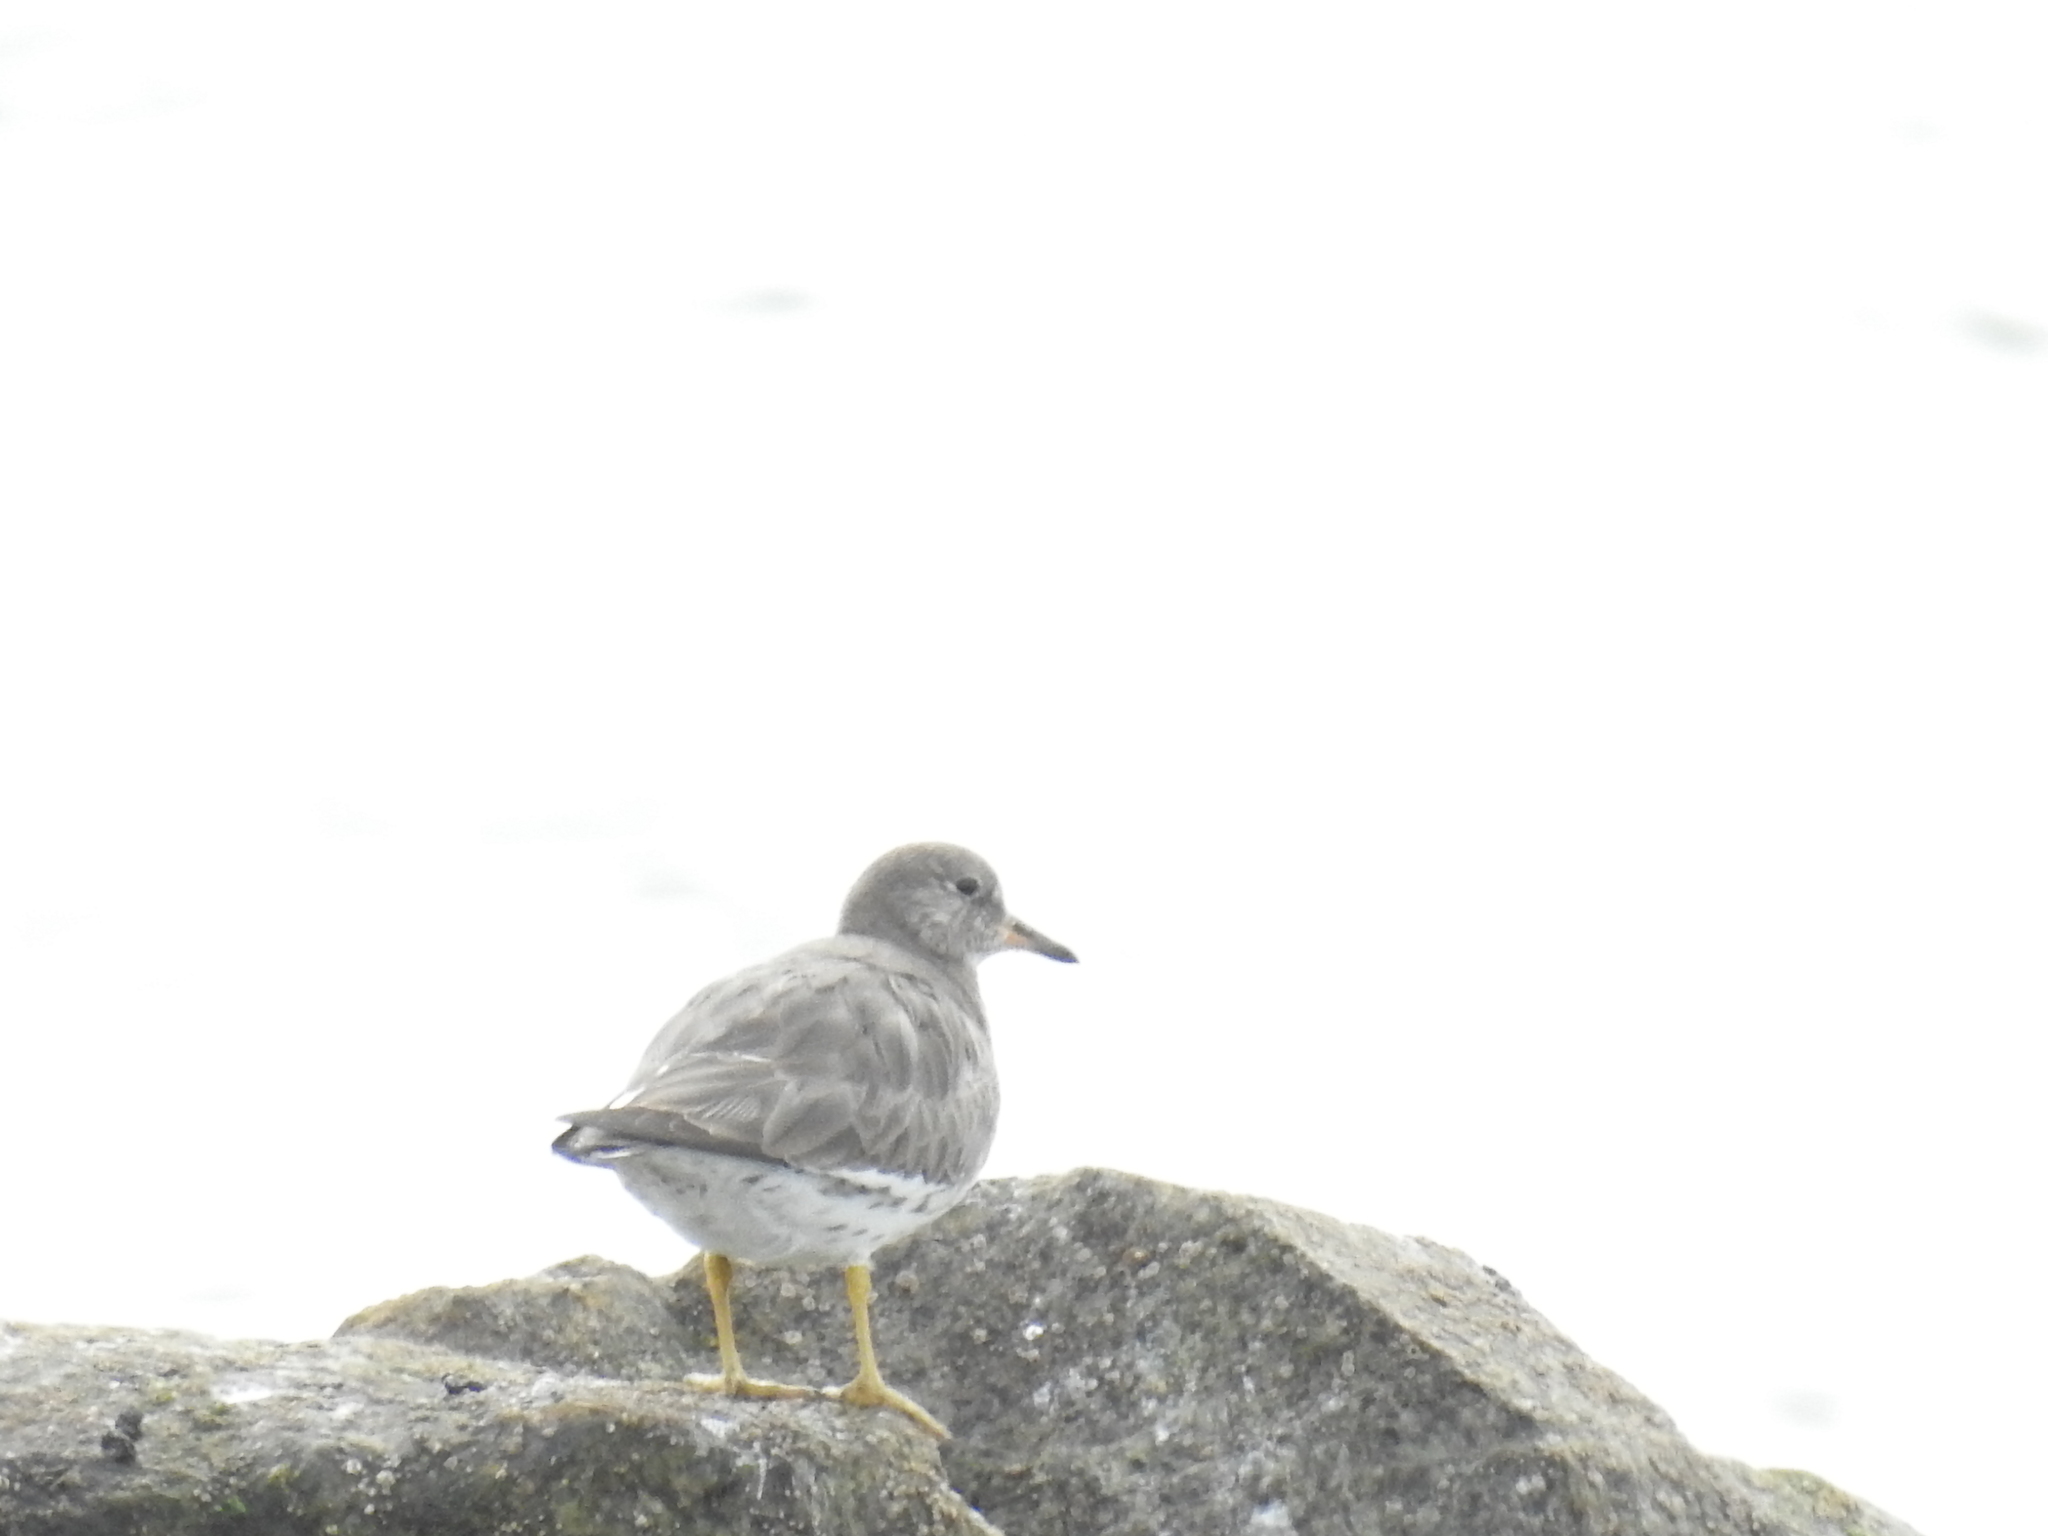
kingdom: Animalia
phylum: Chordata
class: Aves
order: Charadriiformes
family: Scolopacidae
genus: Calidris
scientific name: Calidris virgata
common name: Surfbird
